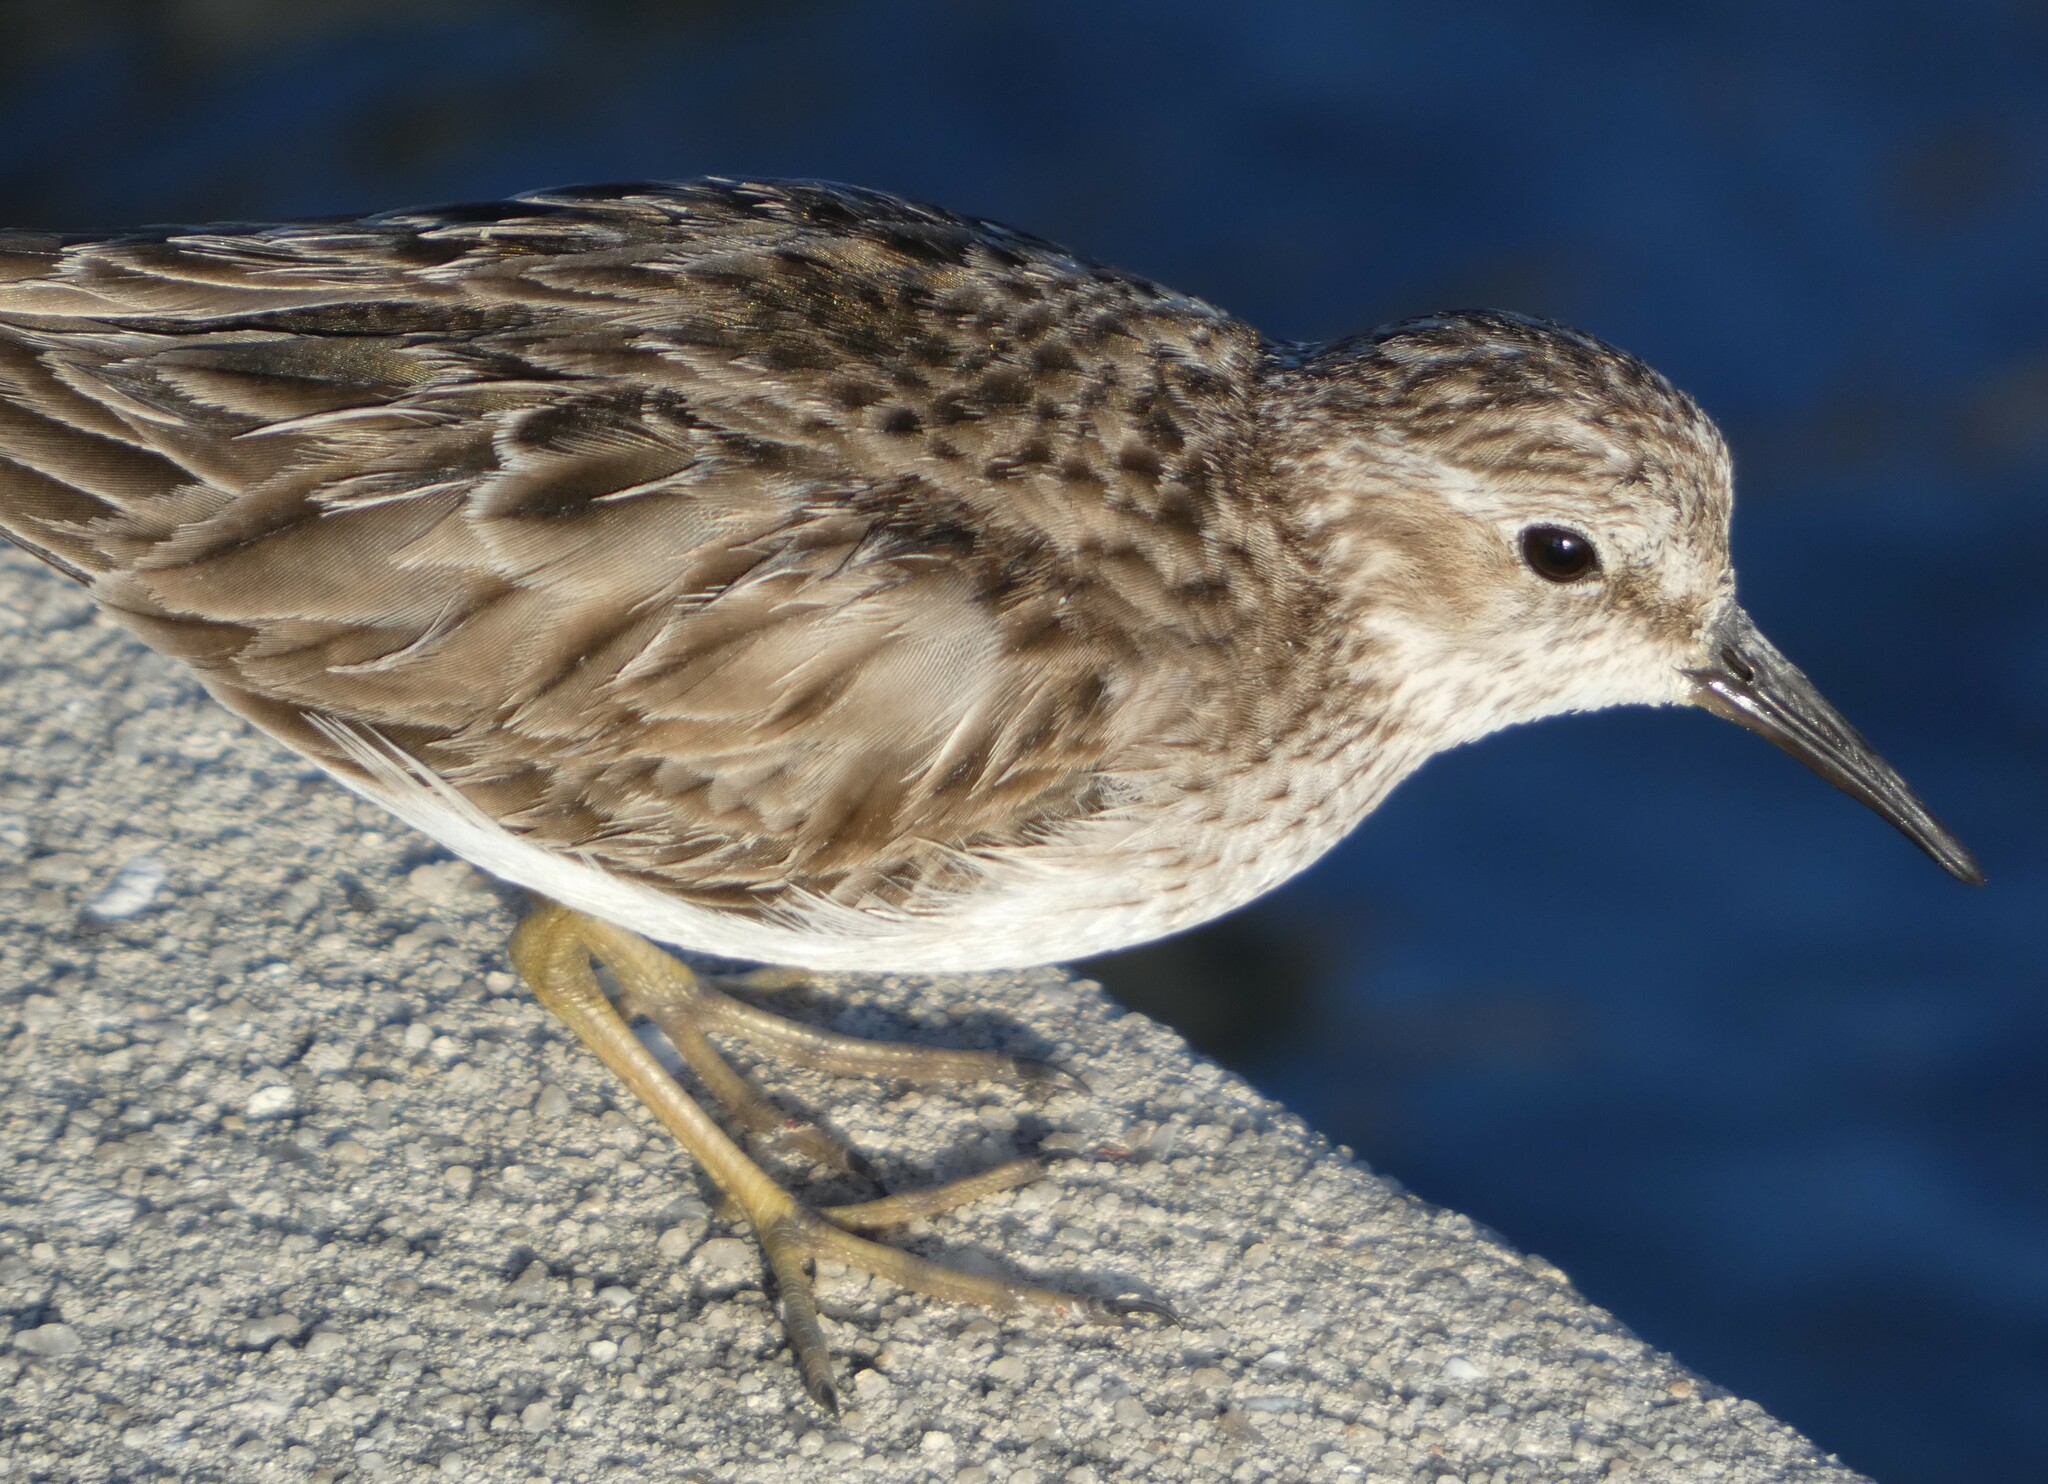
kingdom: Animalia
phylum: Chordata
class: Aves
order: Charadriiformes
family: Scolopacidae
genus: Calidris
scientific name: Calidris minutilla
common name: Least sandpiper
